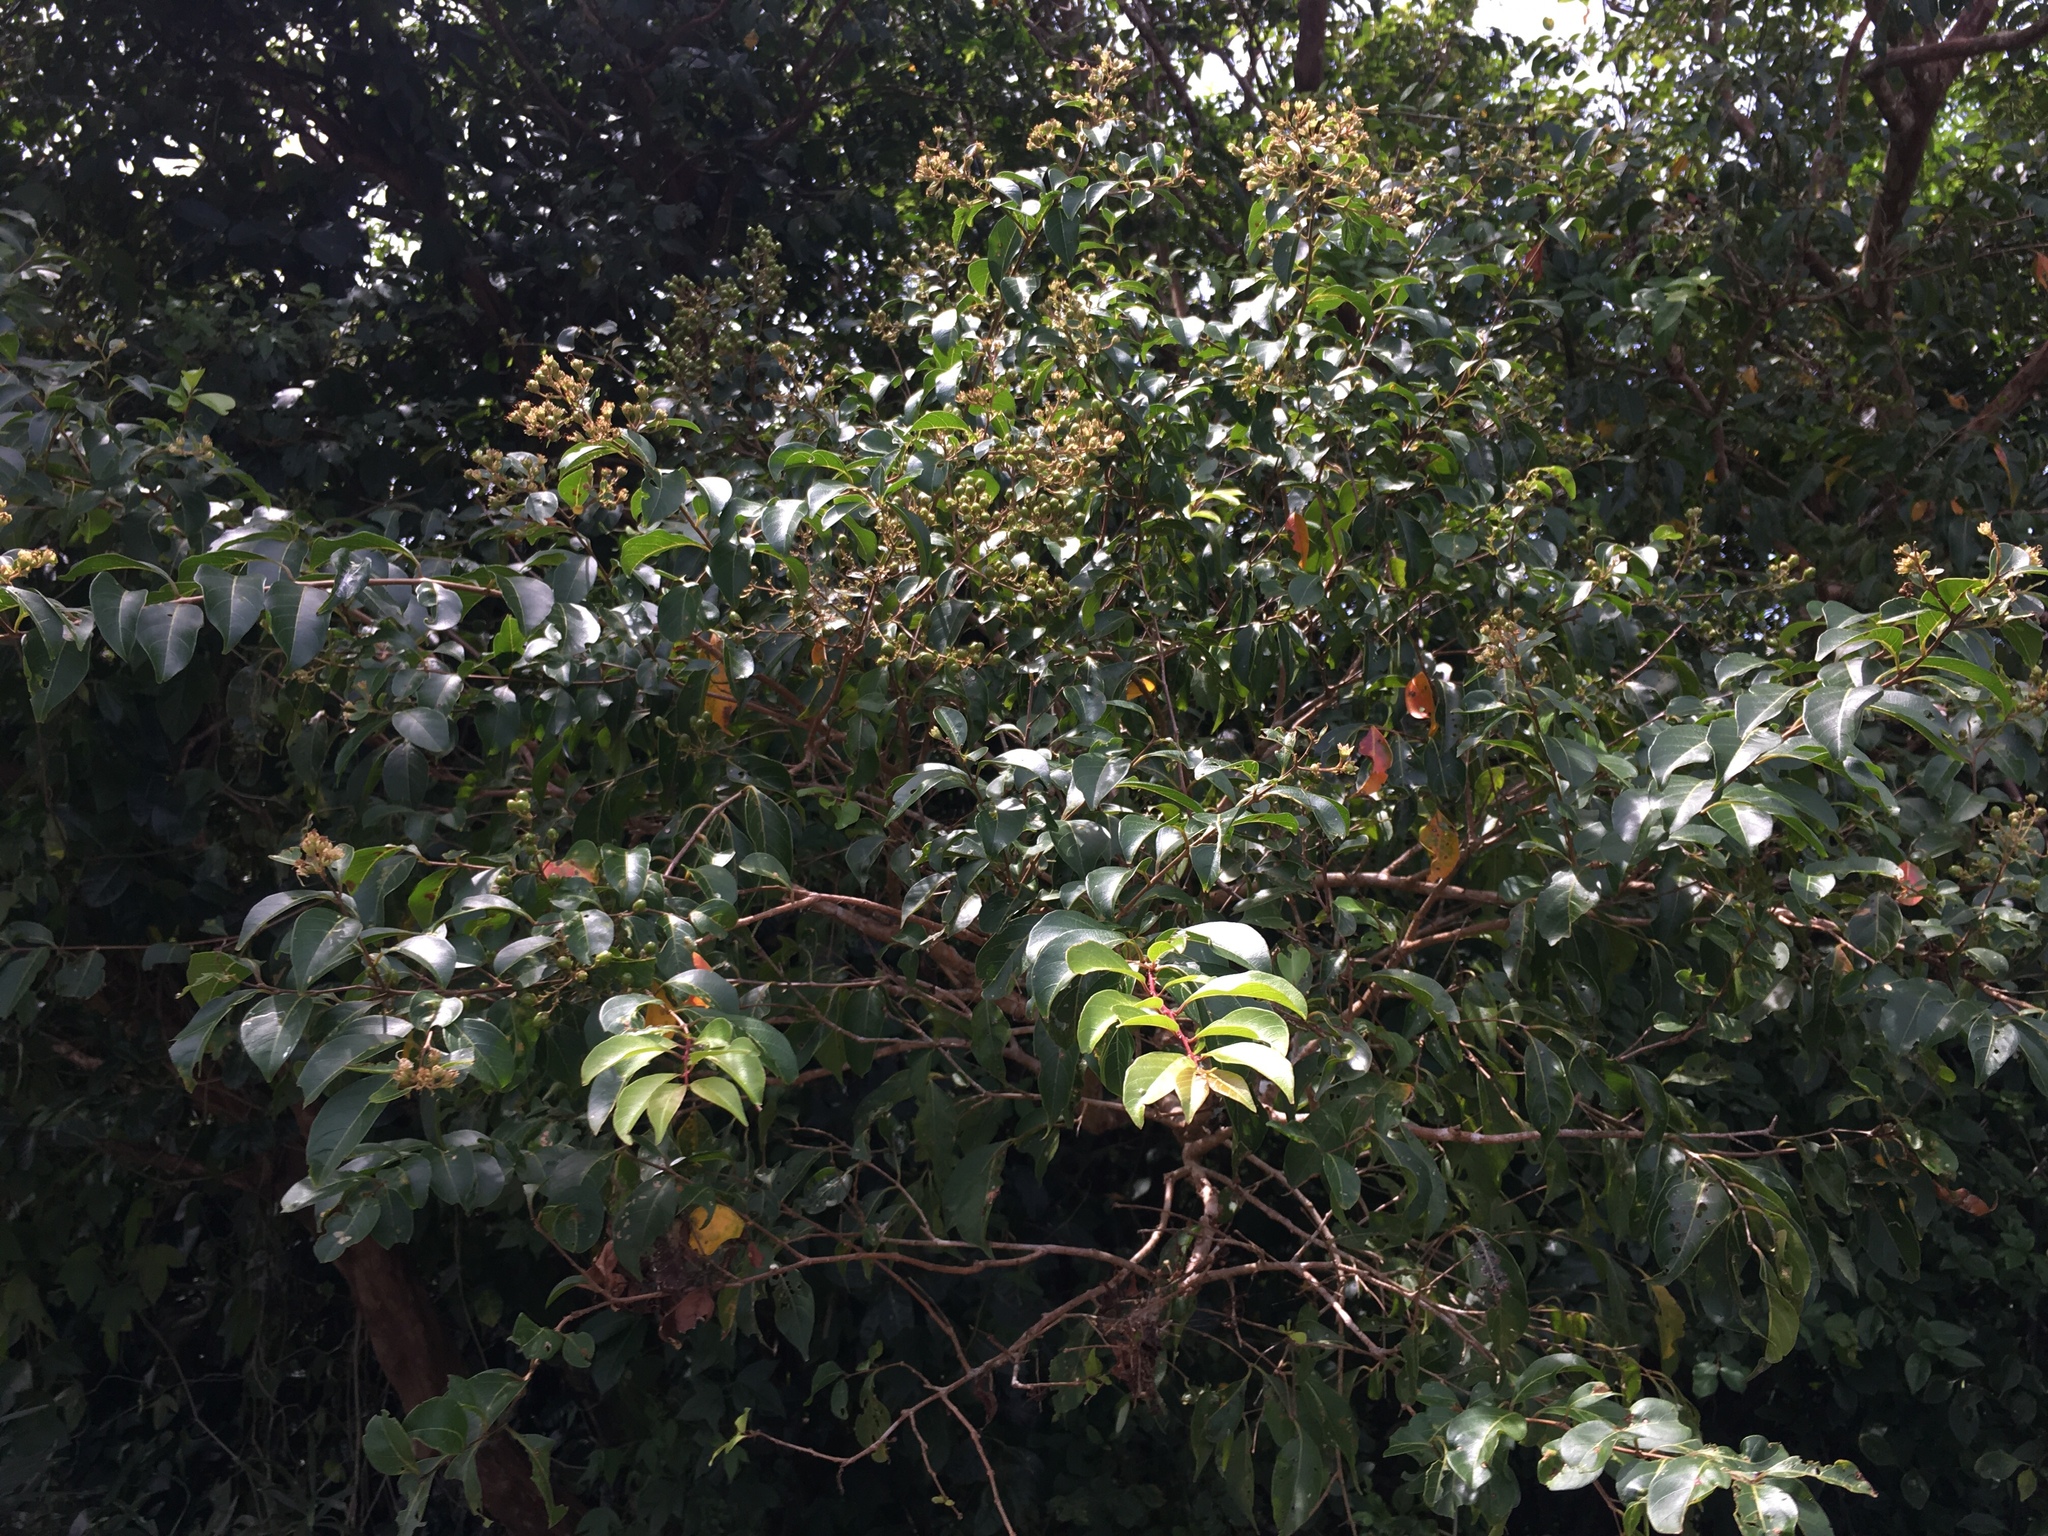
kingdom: Plantae
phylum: Tracheophyta
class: Magnoliopsida
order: Myrtales
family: Lythraceae
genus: Lagerstroemia
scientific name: Lagerstroemia subcostata
